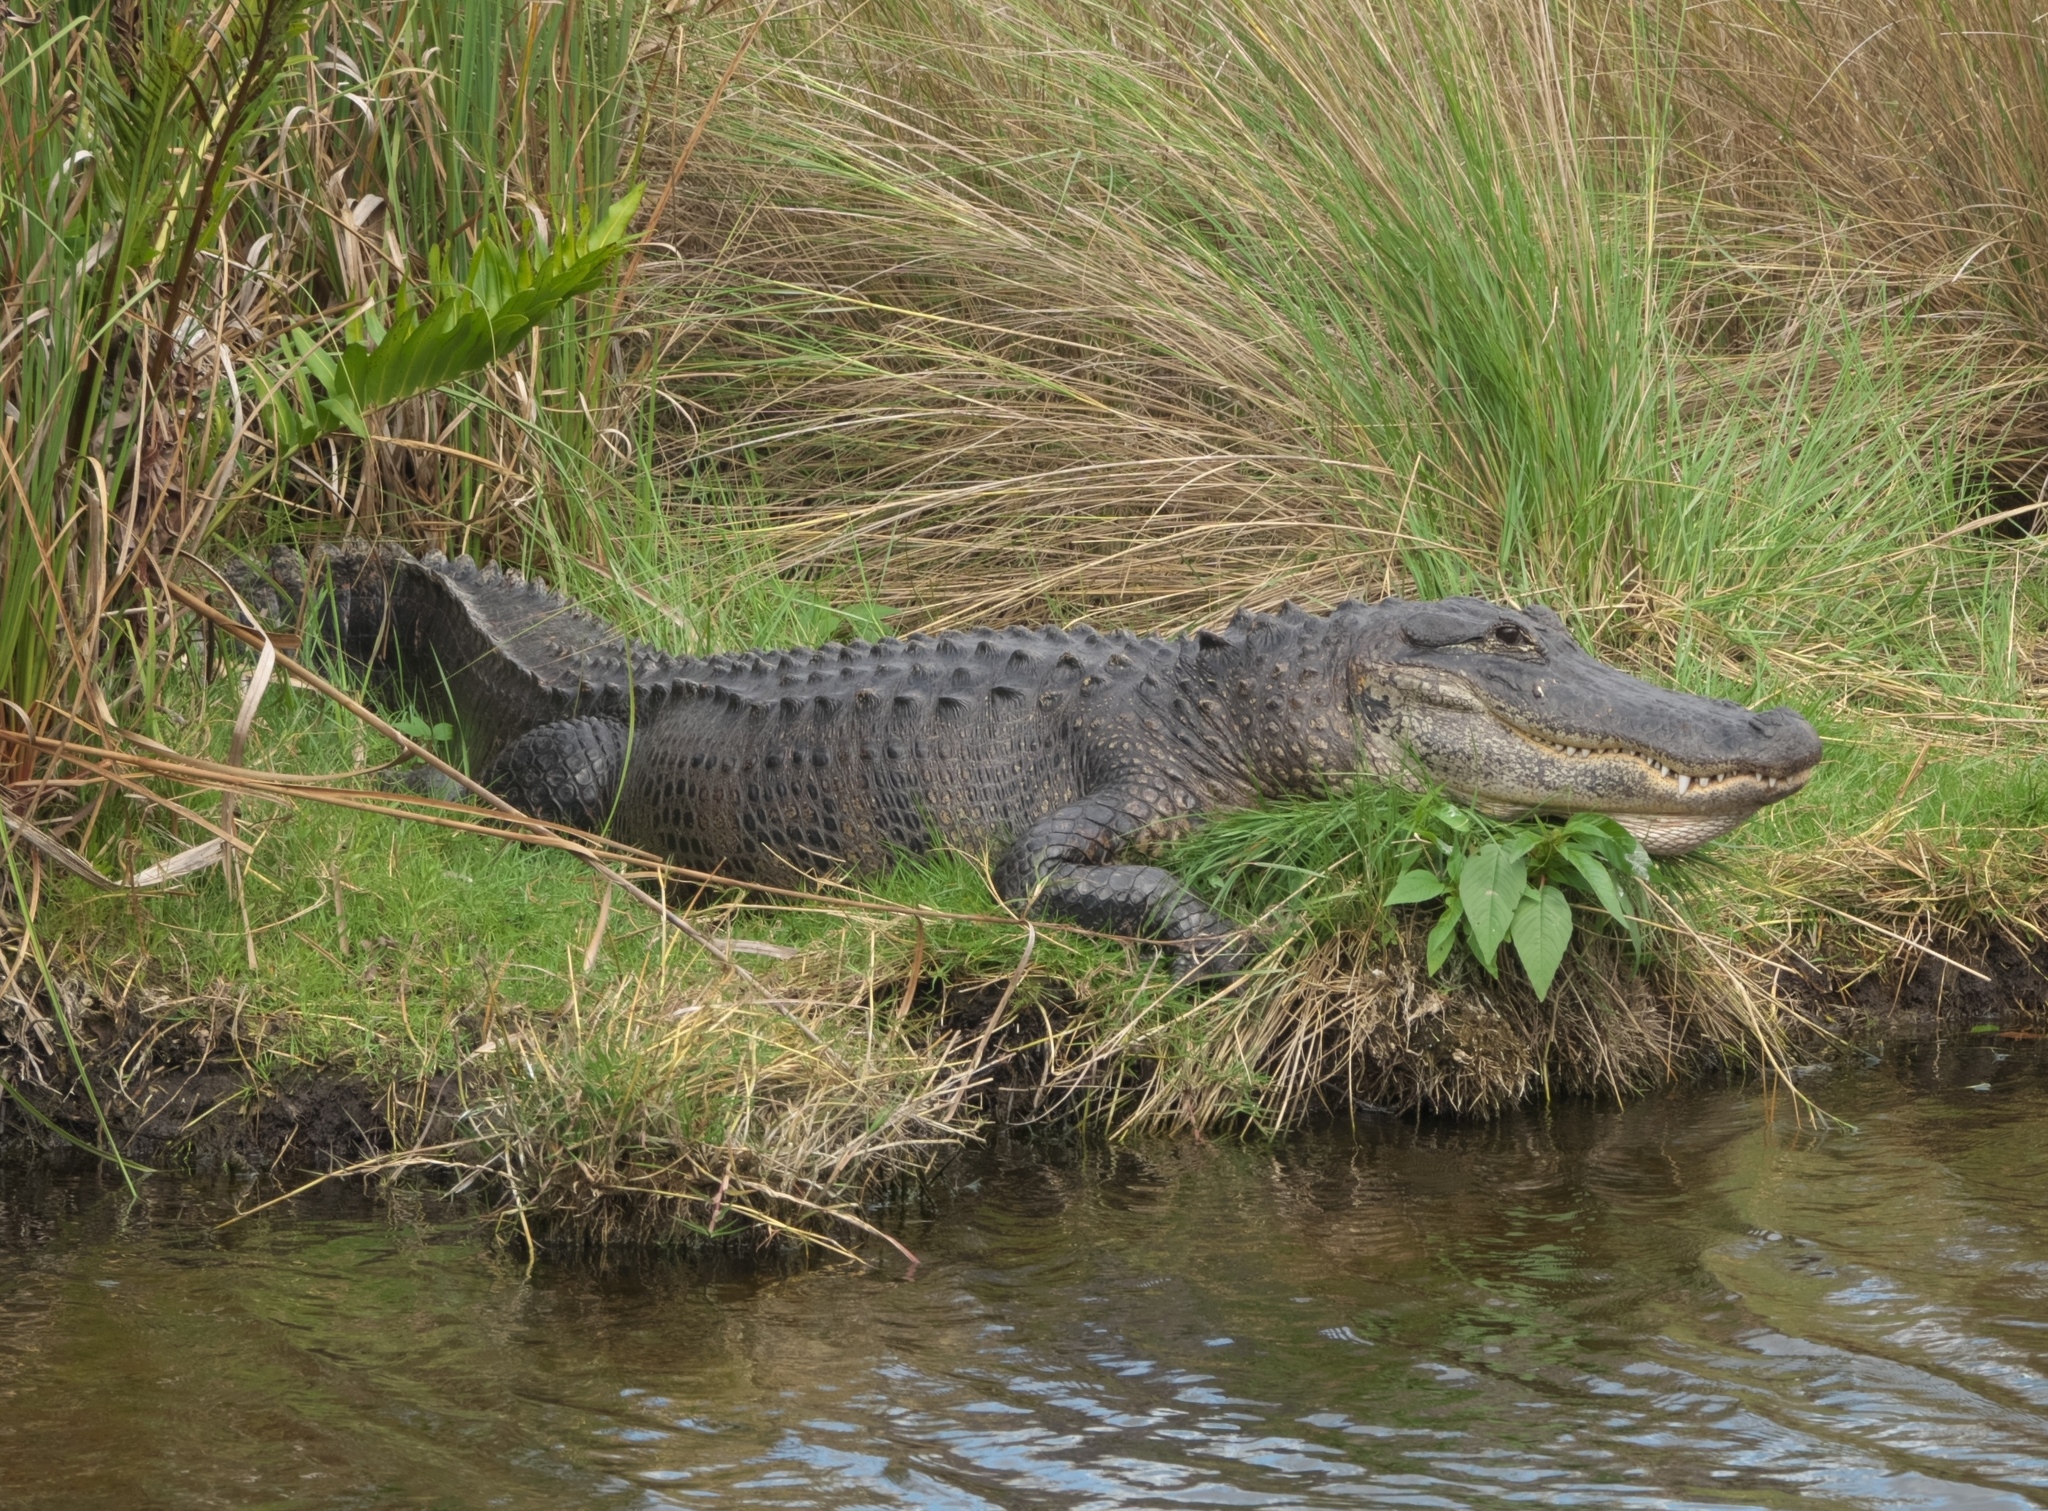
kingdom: Animalia
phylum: Chordata
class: Crocodylia
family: Alligatoridae
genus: Alligator
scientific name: Alligator mississippiensis
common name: American alligator
